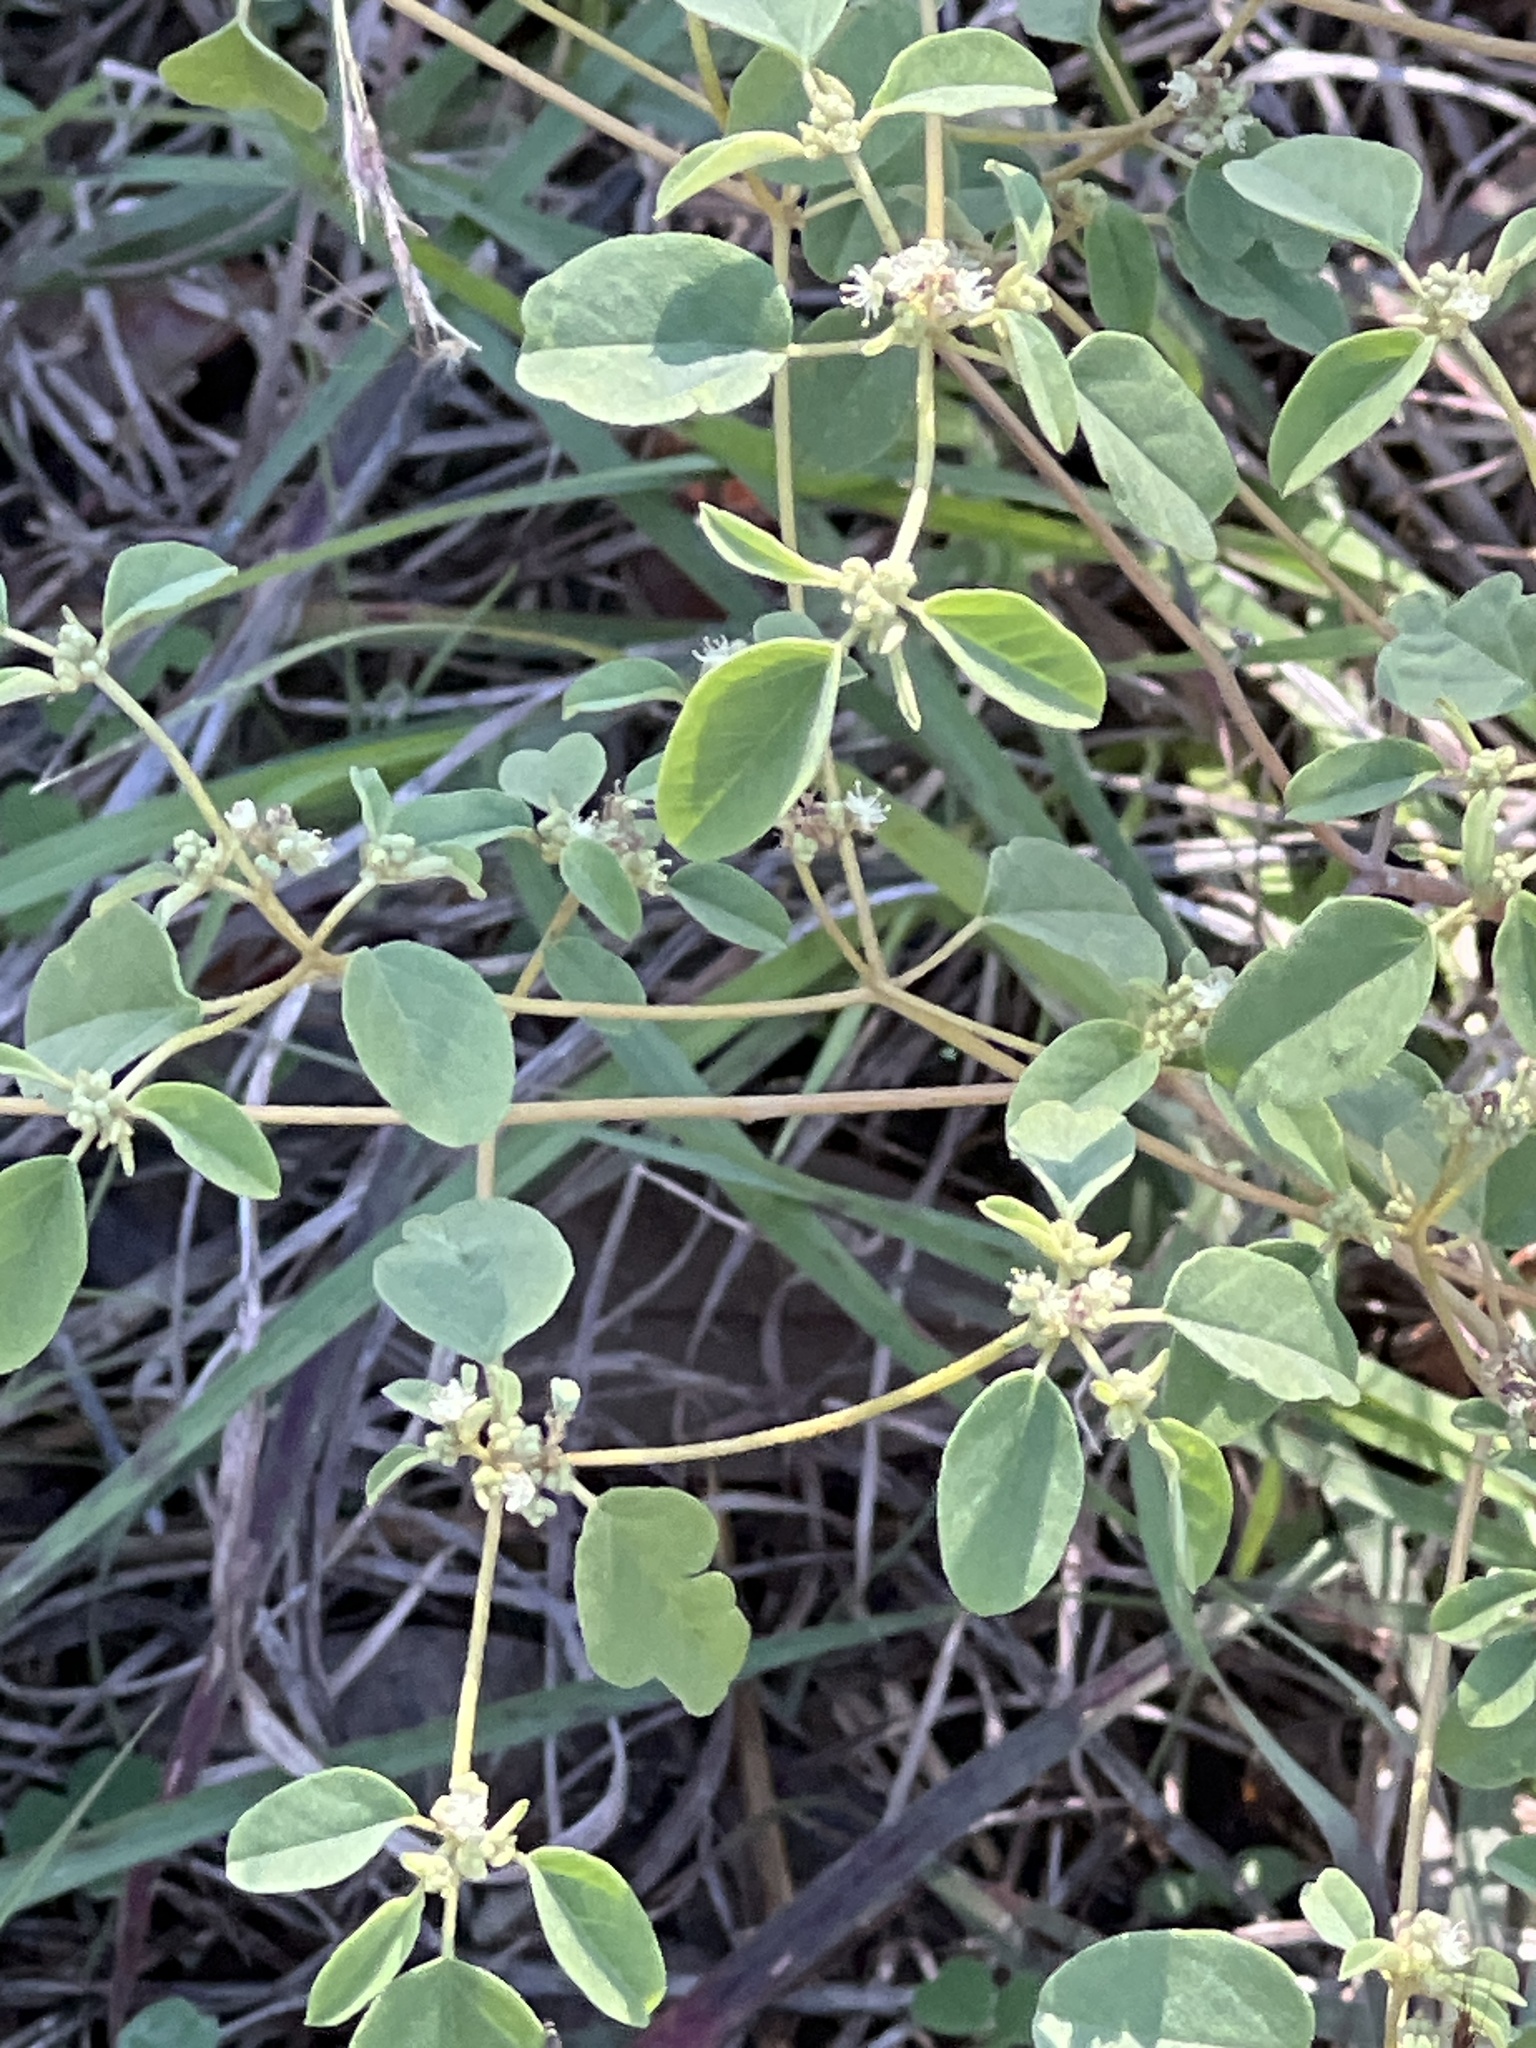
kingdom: Plantae
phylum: Tracheophyta
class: Magnoliopsida
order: Malpighiales
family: Euphorbiaceae
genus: Croton
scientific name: Croton monanthogynus
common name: One-seed croton
